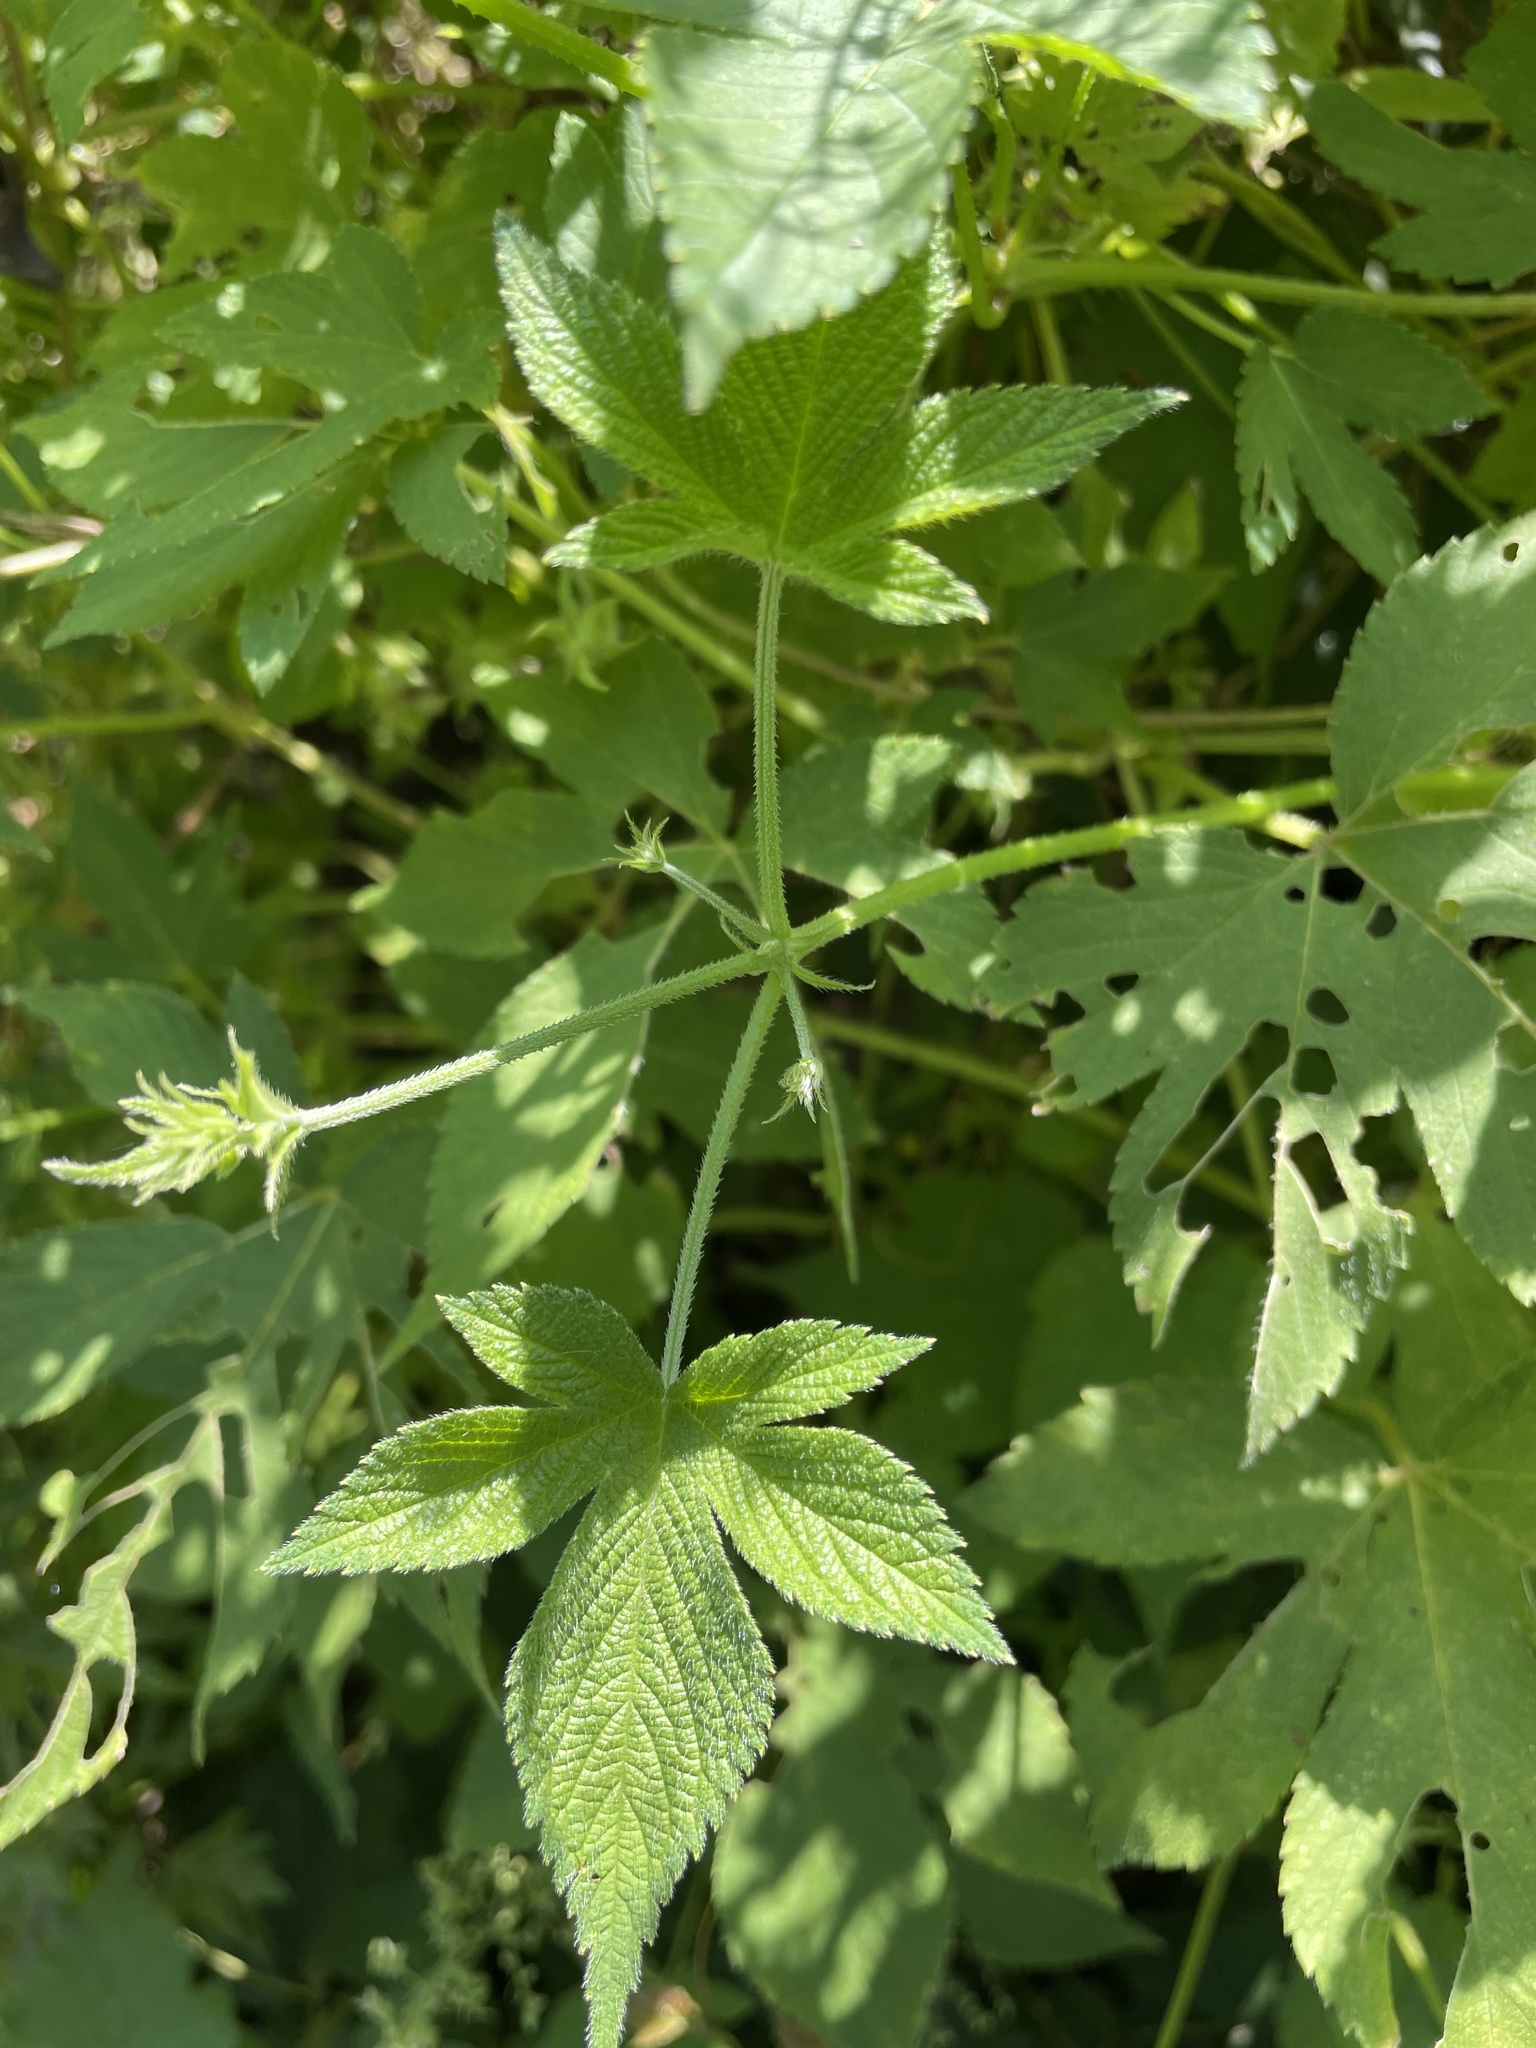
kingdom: Plantae
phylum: Tracheophyta
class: Magnoliopsida
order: Rosales
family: Cannabaceae
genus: Humulus
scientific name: Humulus scandens
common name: Japanese hop
